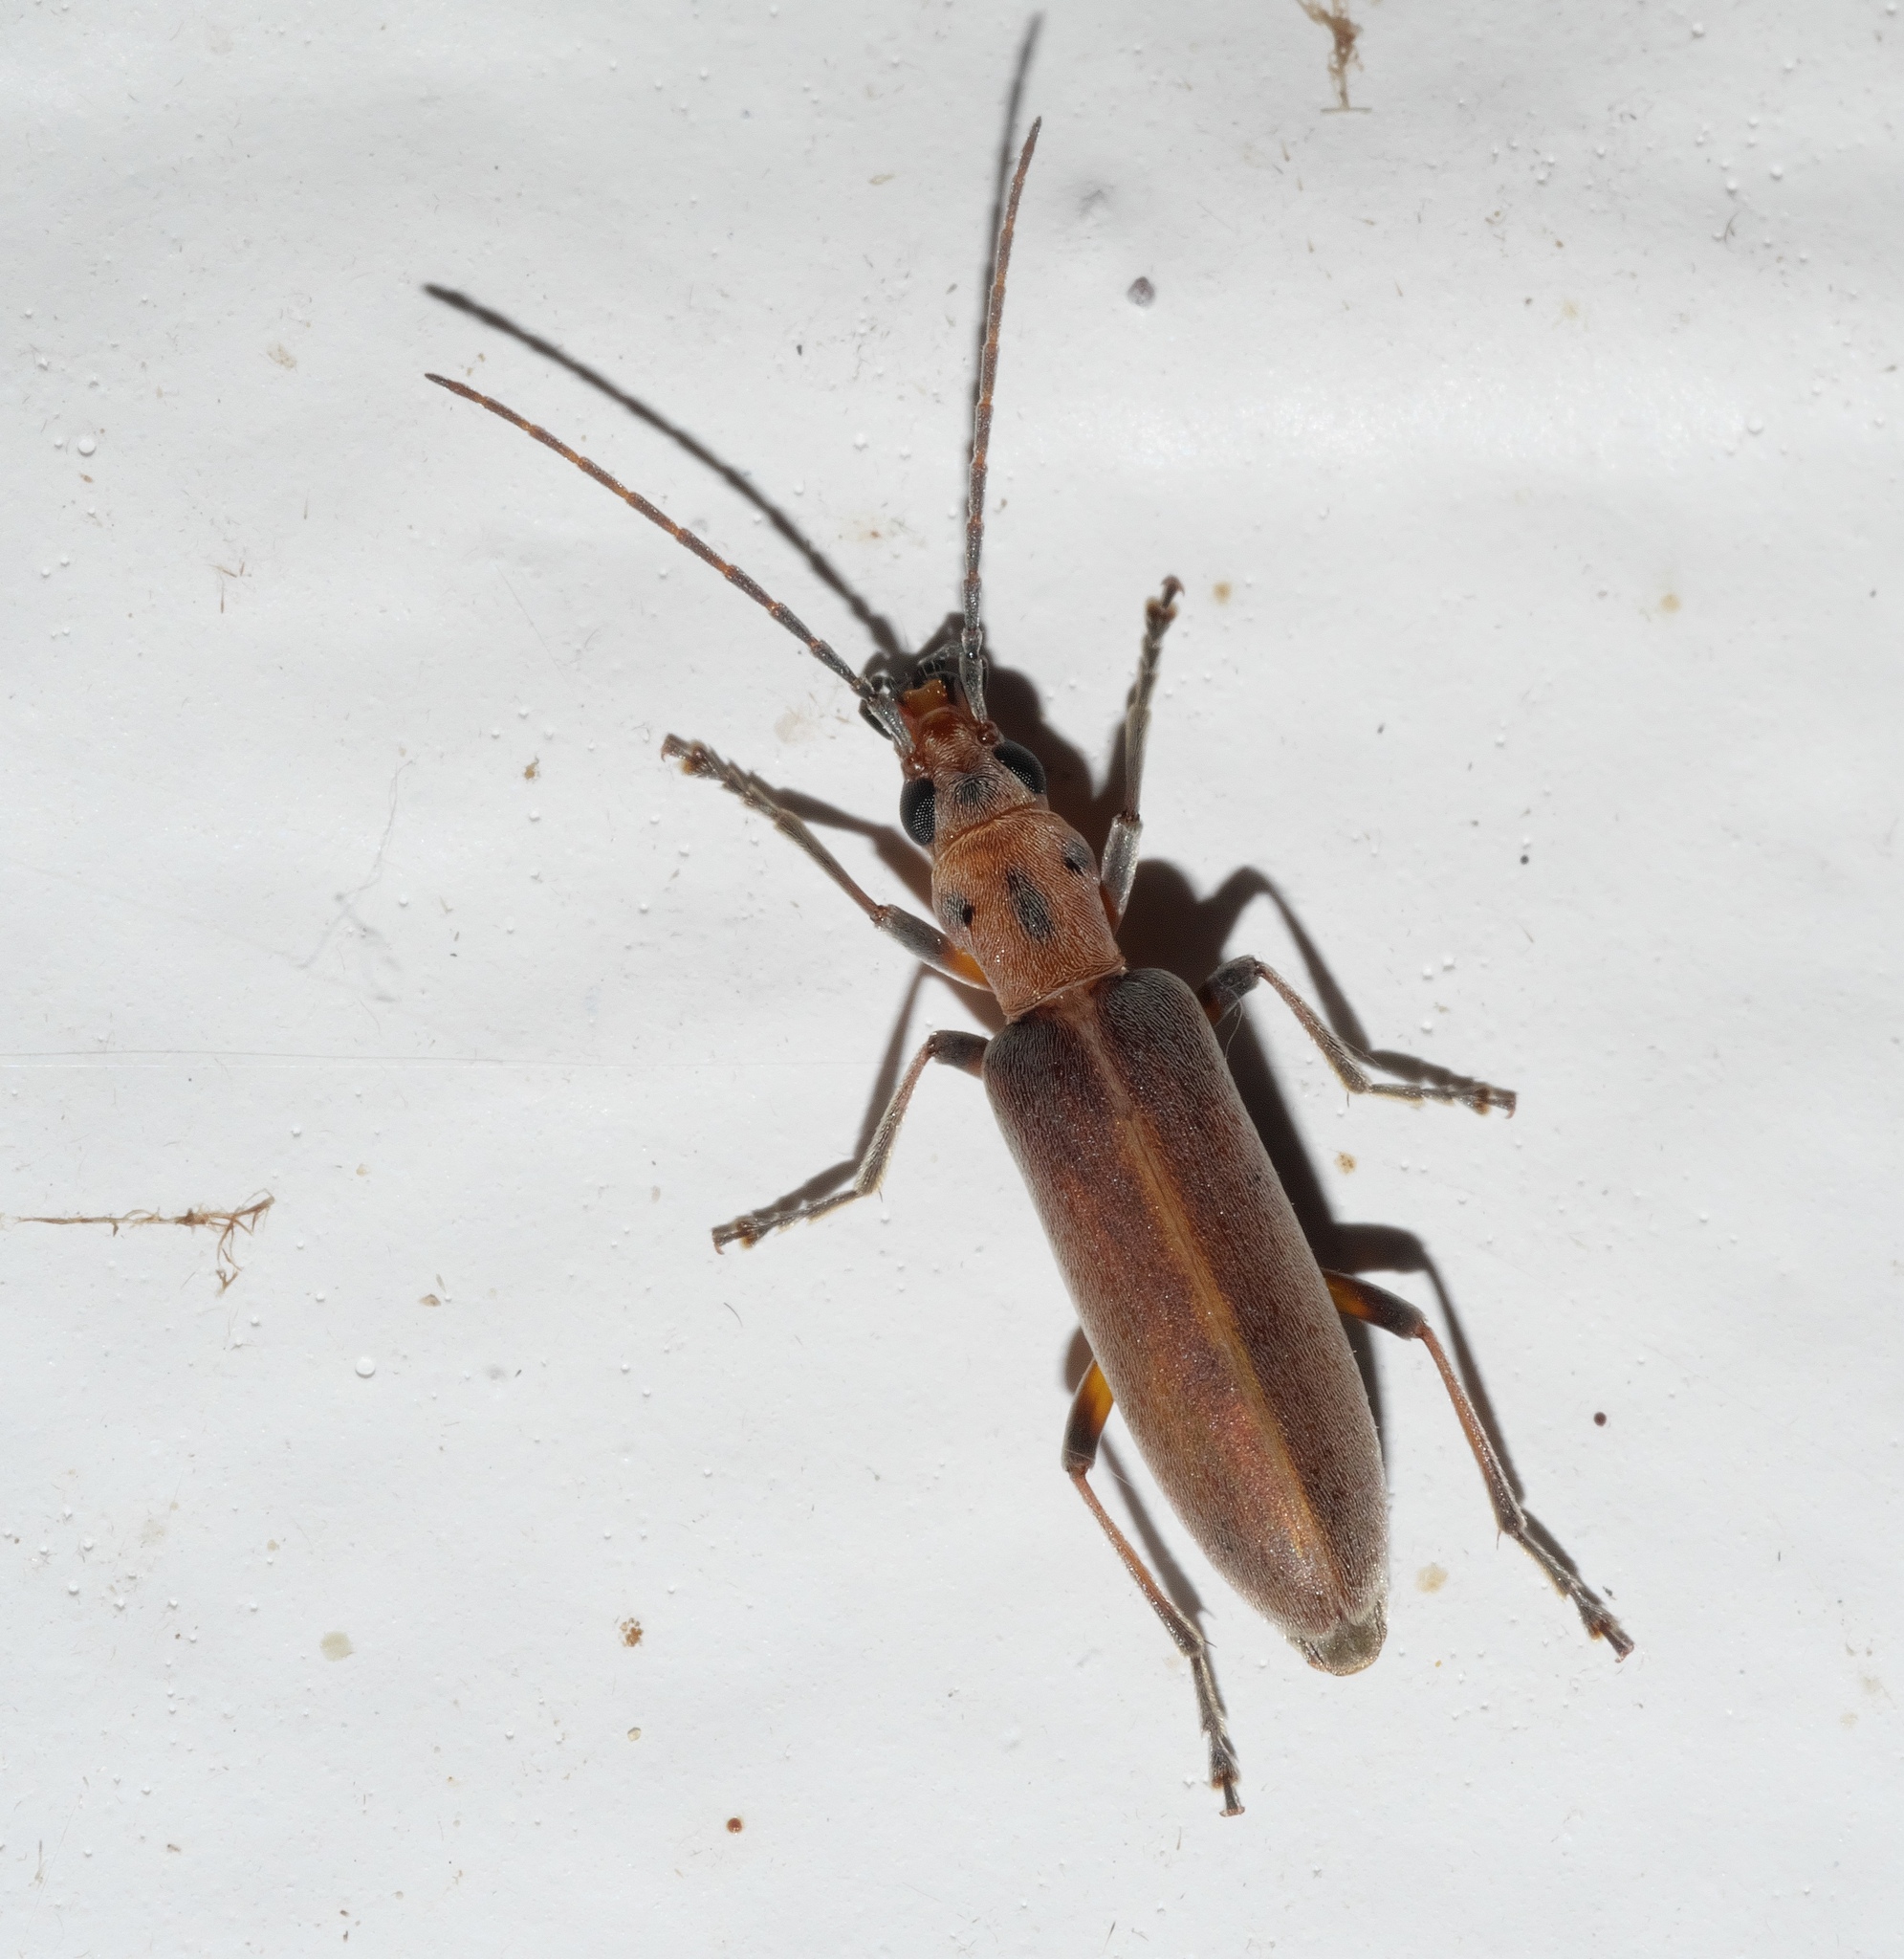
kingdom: Animalia
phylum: Arthropoda
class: Insecta
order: Coleoptera
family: Oedemeridae
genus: Oxacis
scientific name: Oxacis trimaculata
